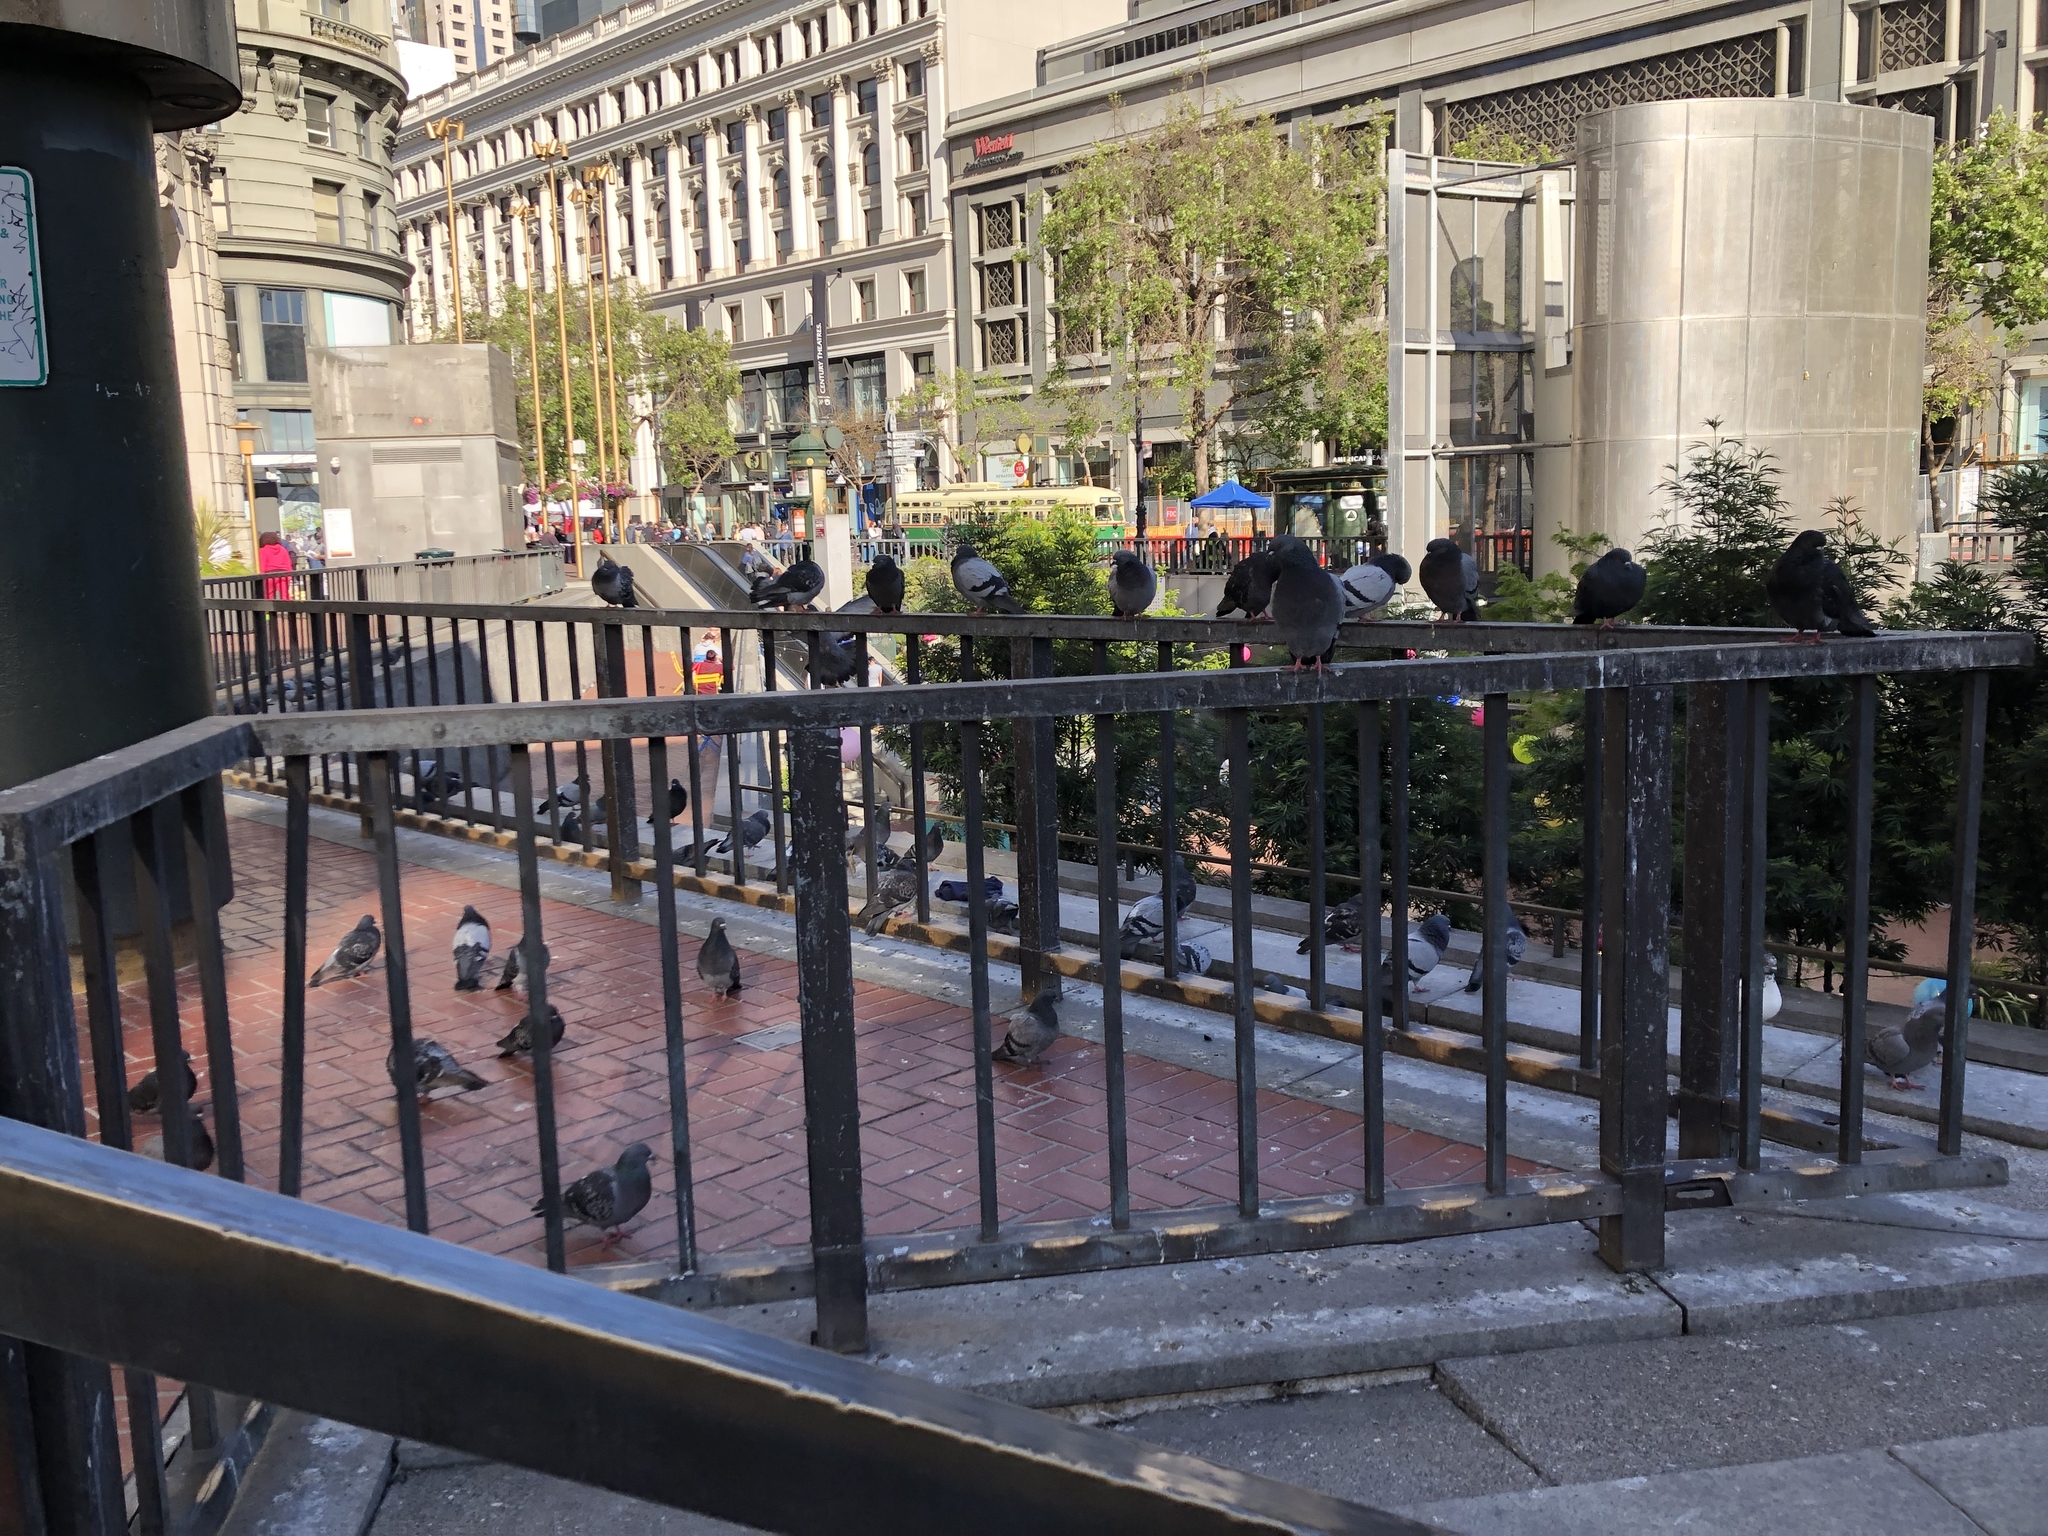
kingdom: Animalia
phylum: Chordata
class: Aves
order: Columbiformes
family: Columbidae
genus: Columba
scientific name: Columba livia
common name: Rock pigeon
